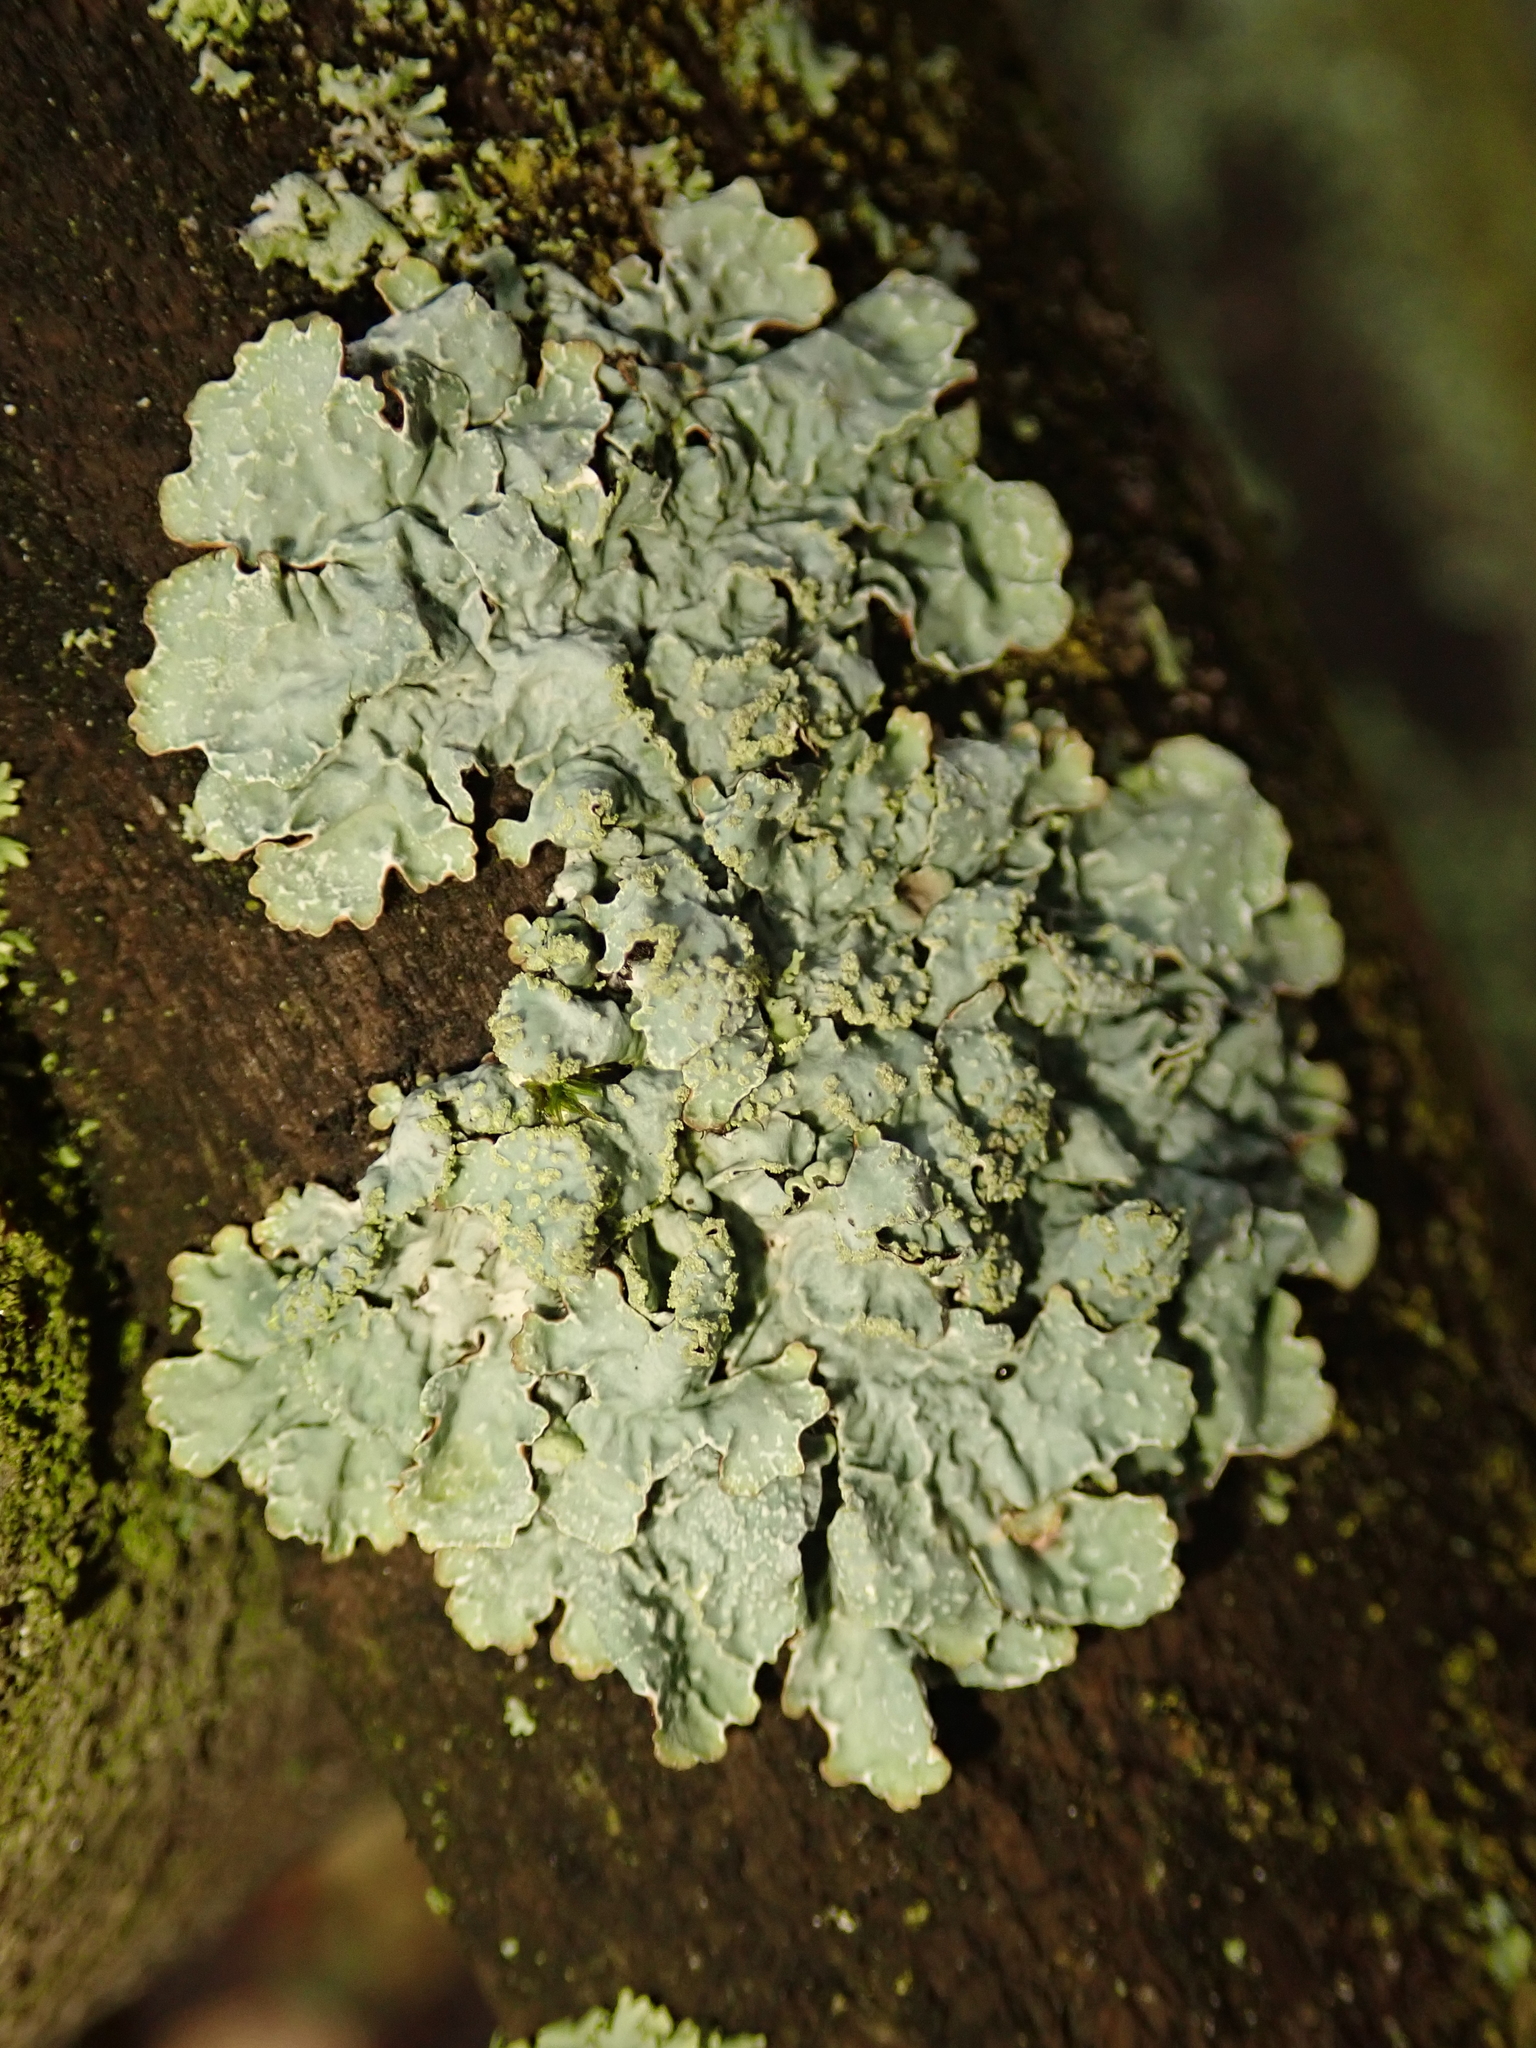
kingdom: Fungi
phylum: Ascomycota
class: Lecanoromycetes
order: Lecanorales
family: Parmeliaceae
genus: Parmelia
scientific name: Parmelia sulcata
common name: Netted shield lichen
